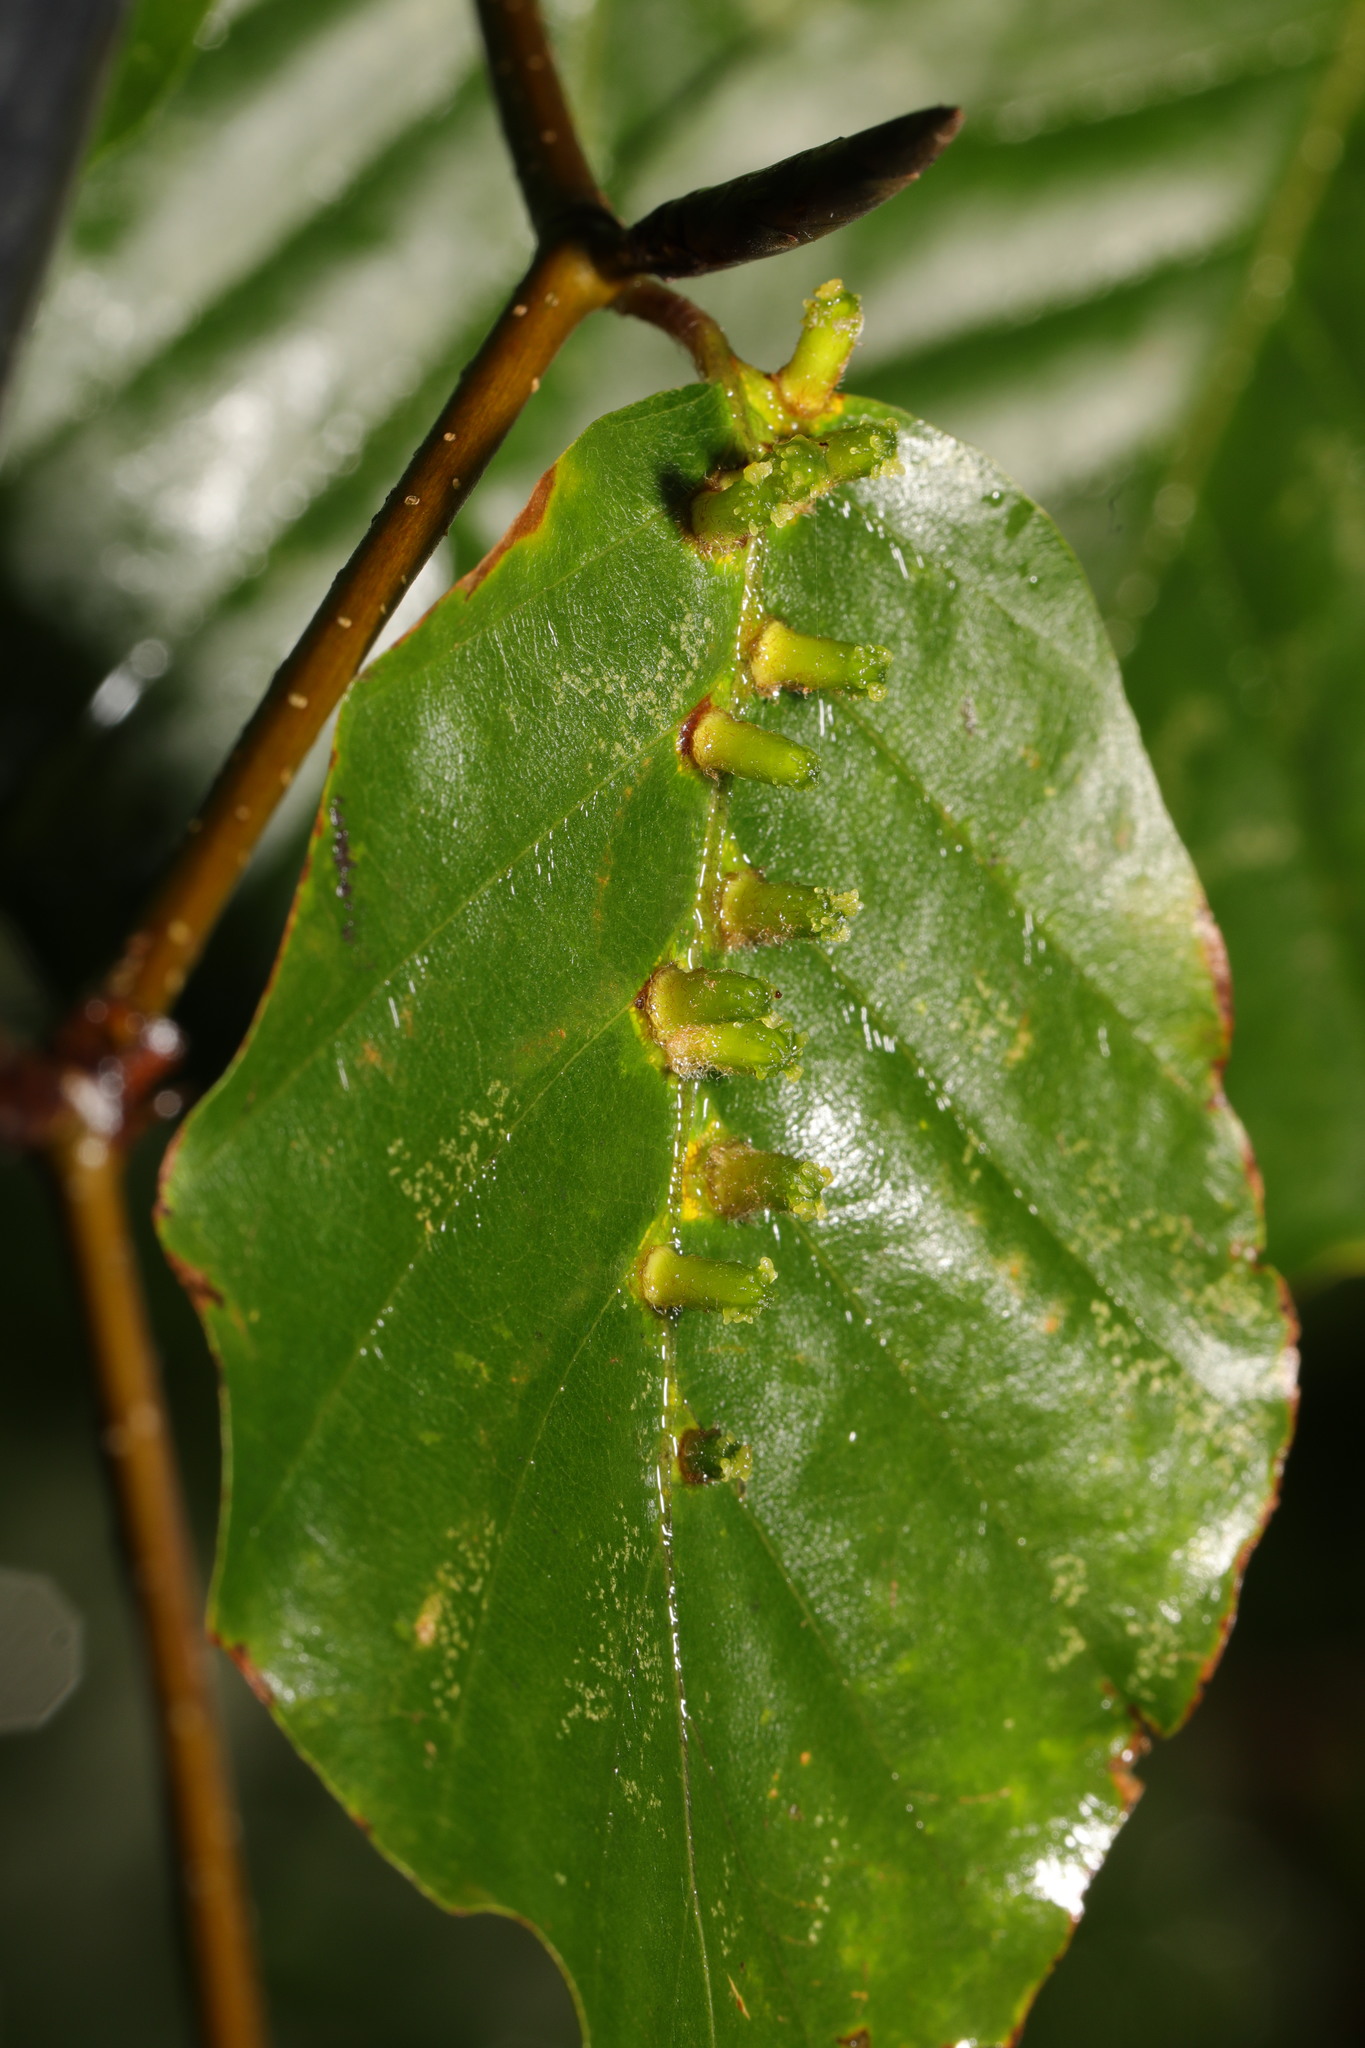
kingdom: Animalia
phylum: Arthropoda
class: Insecta
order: Diptera
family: Cecidomyiidae
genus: Hartigiola
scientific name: Hartigiola annulipes
